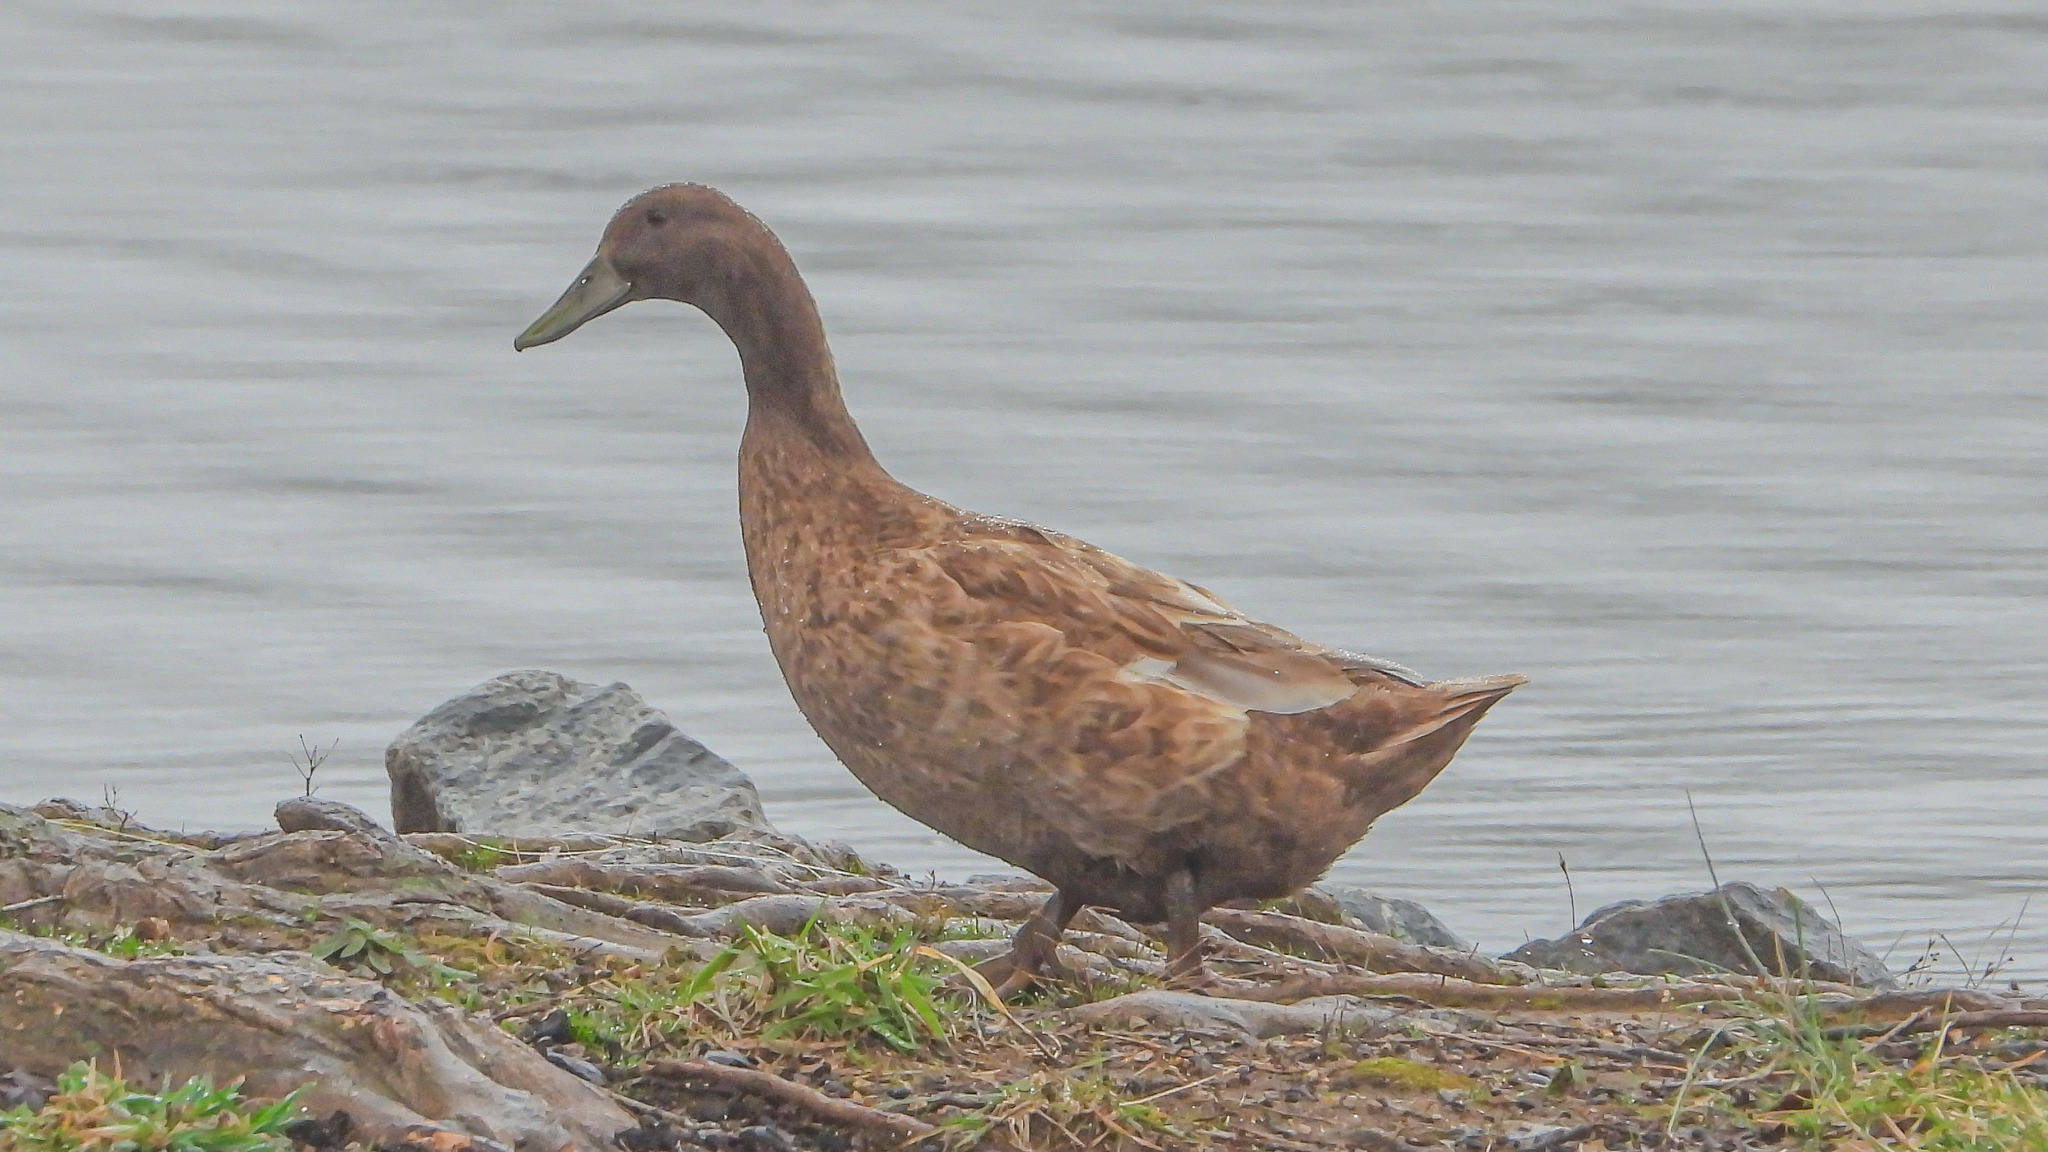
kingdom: Animalia
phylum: Chordata
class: Aves
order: Anseriformes
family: Anatidae
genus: Anas
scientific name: Anas platyrhynchos
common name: Mallard
